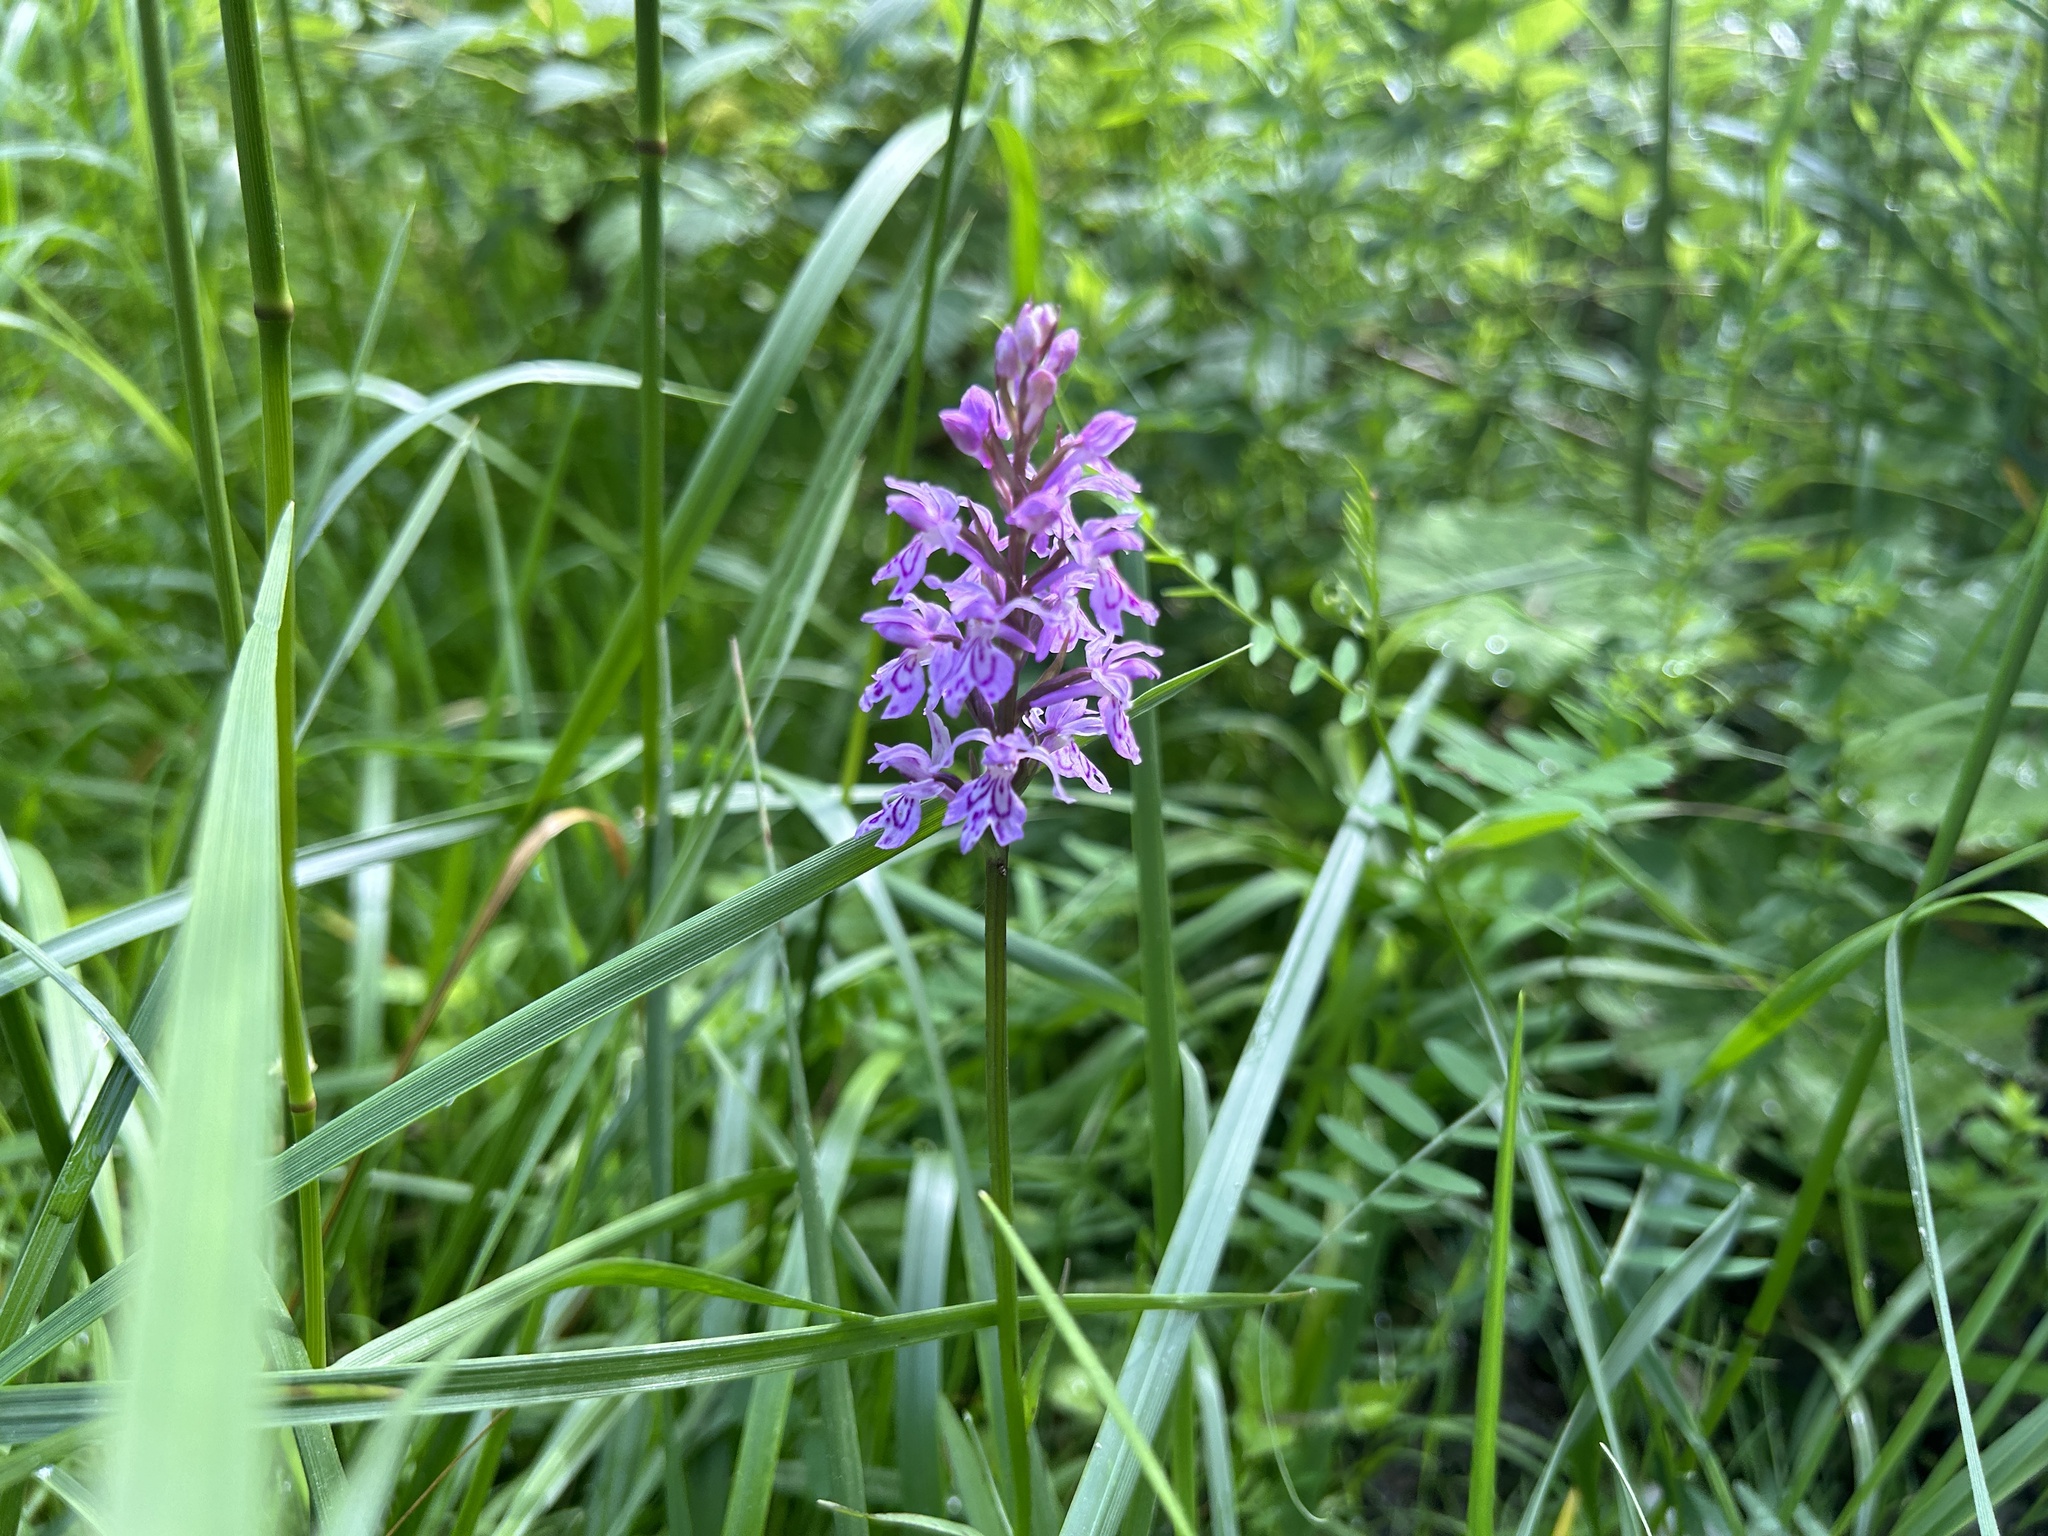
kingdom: Plantae
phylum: Tracheophyta
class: Liliopsida
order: Asparagales
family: Orchidaceae
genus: Dactylorhiza
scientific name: Dactylorhiza maculata
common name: Heath spotted-orchid
